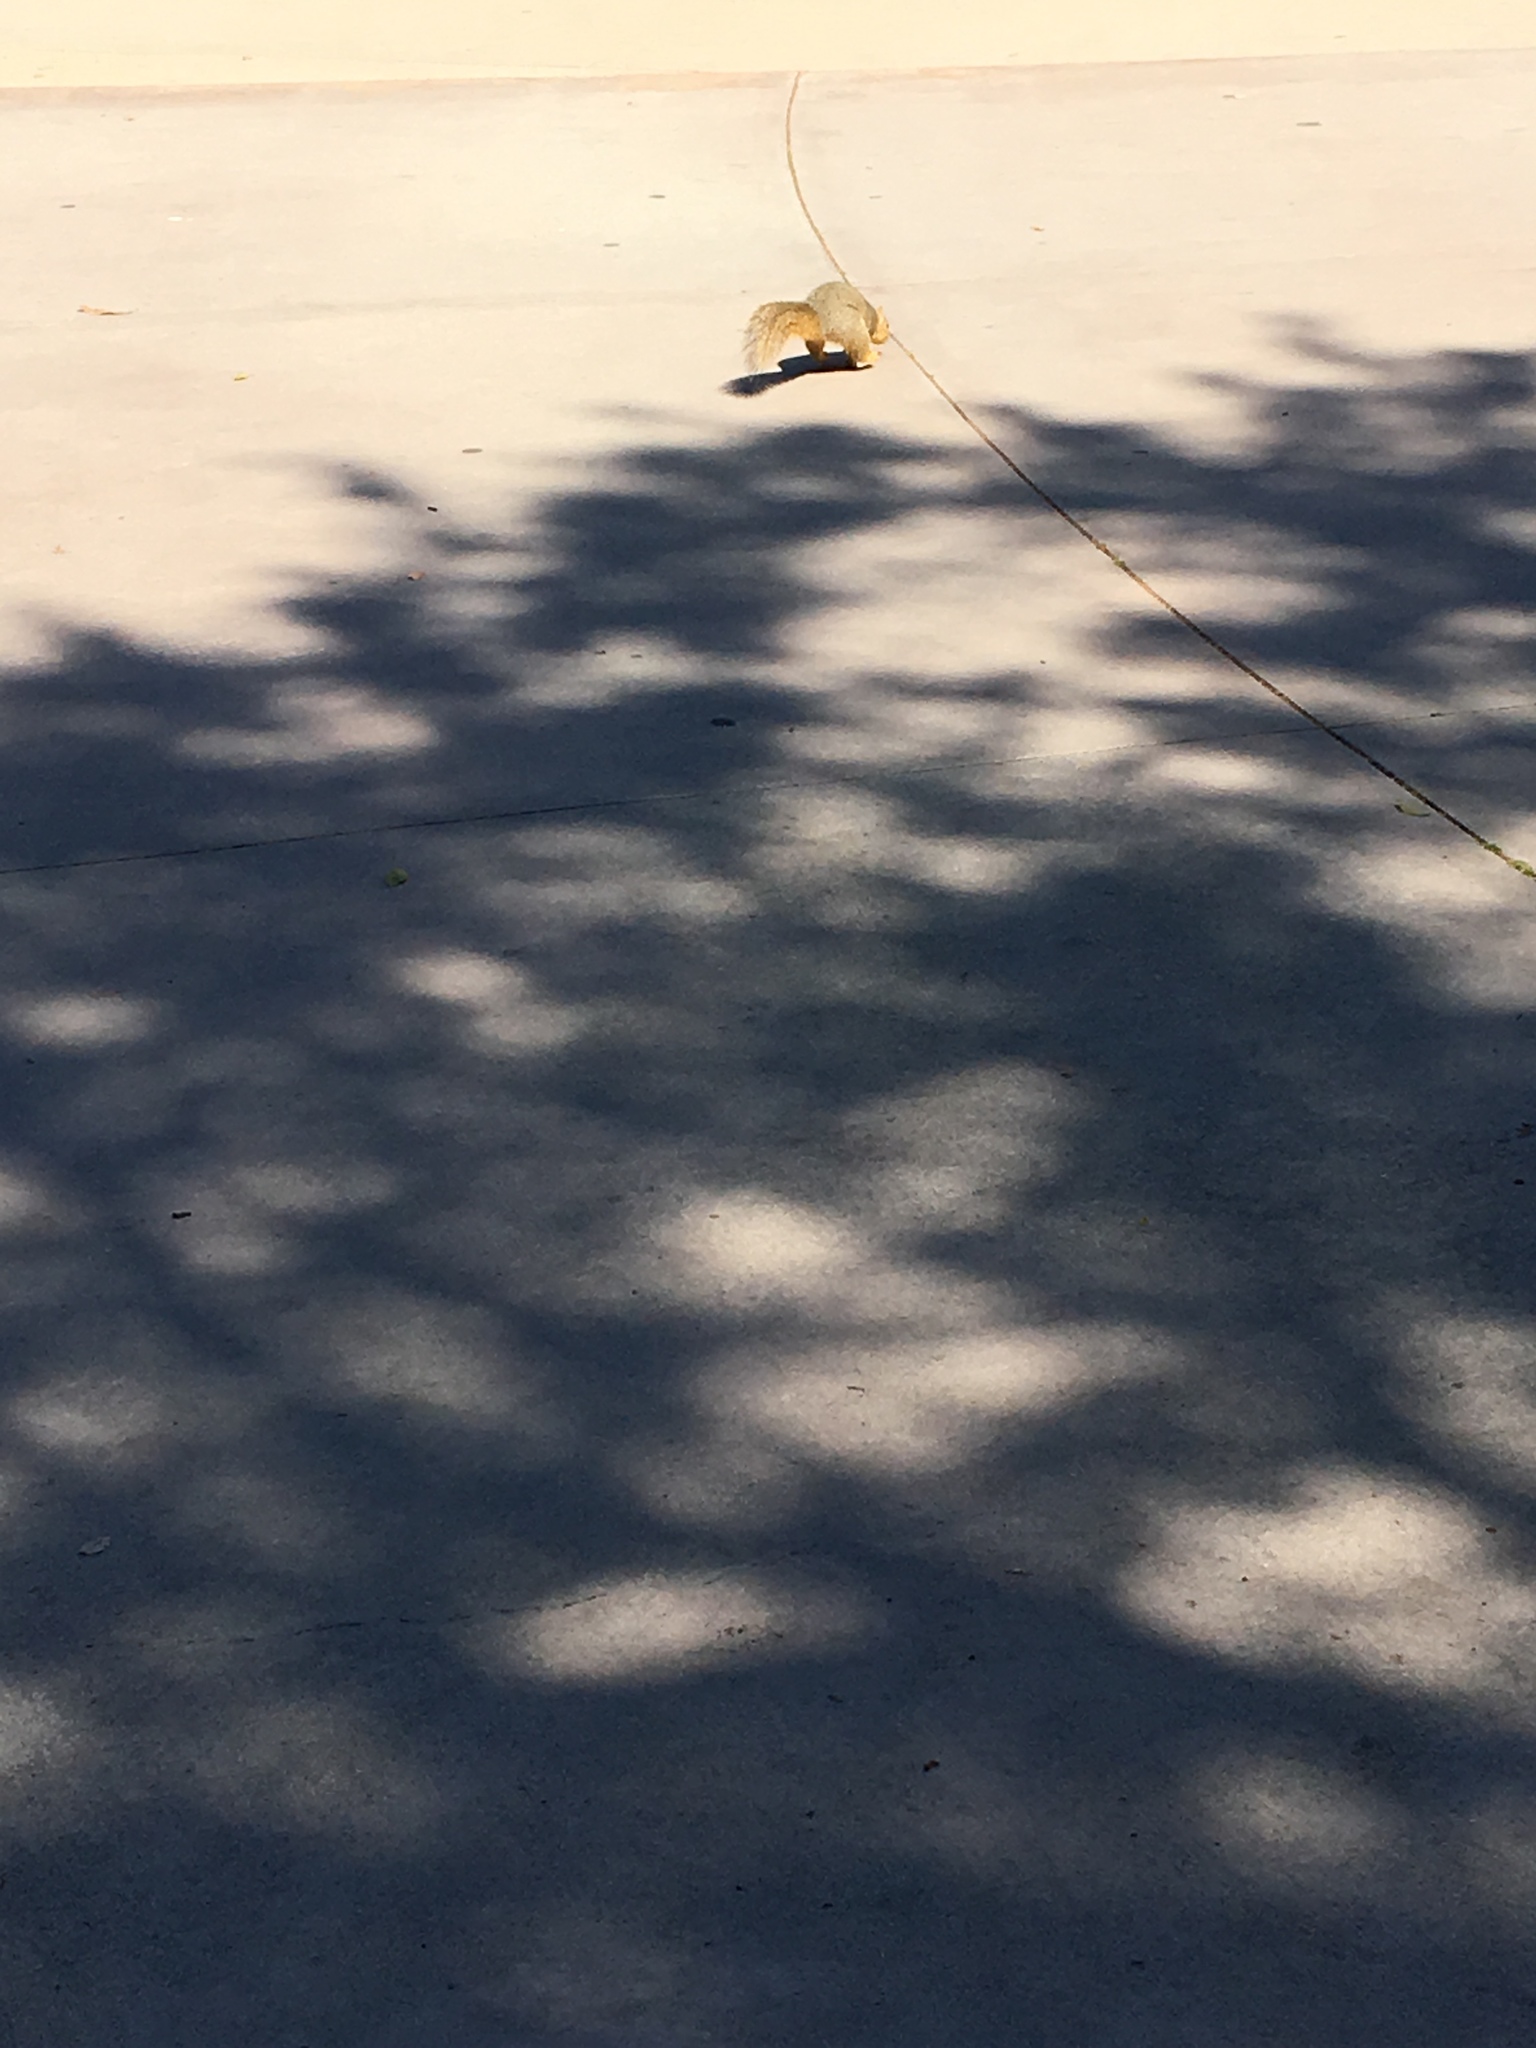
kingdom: Animalia
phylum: Chordata
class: Mammalia
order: Rodentia
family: Sciuridae
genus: Sciurus
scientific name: Sciurus niger
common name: Fox squirrel
